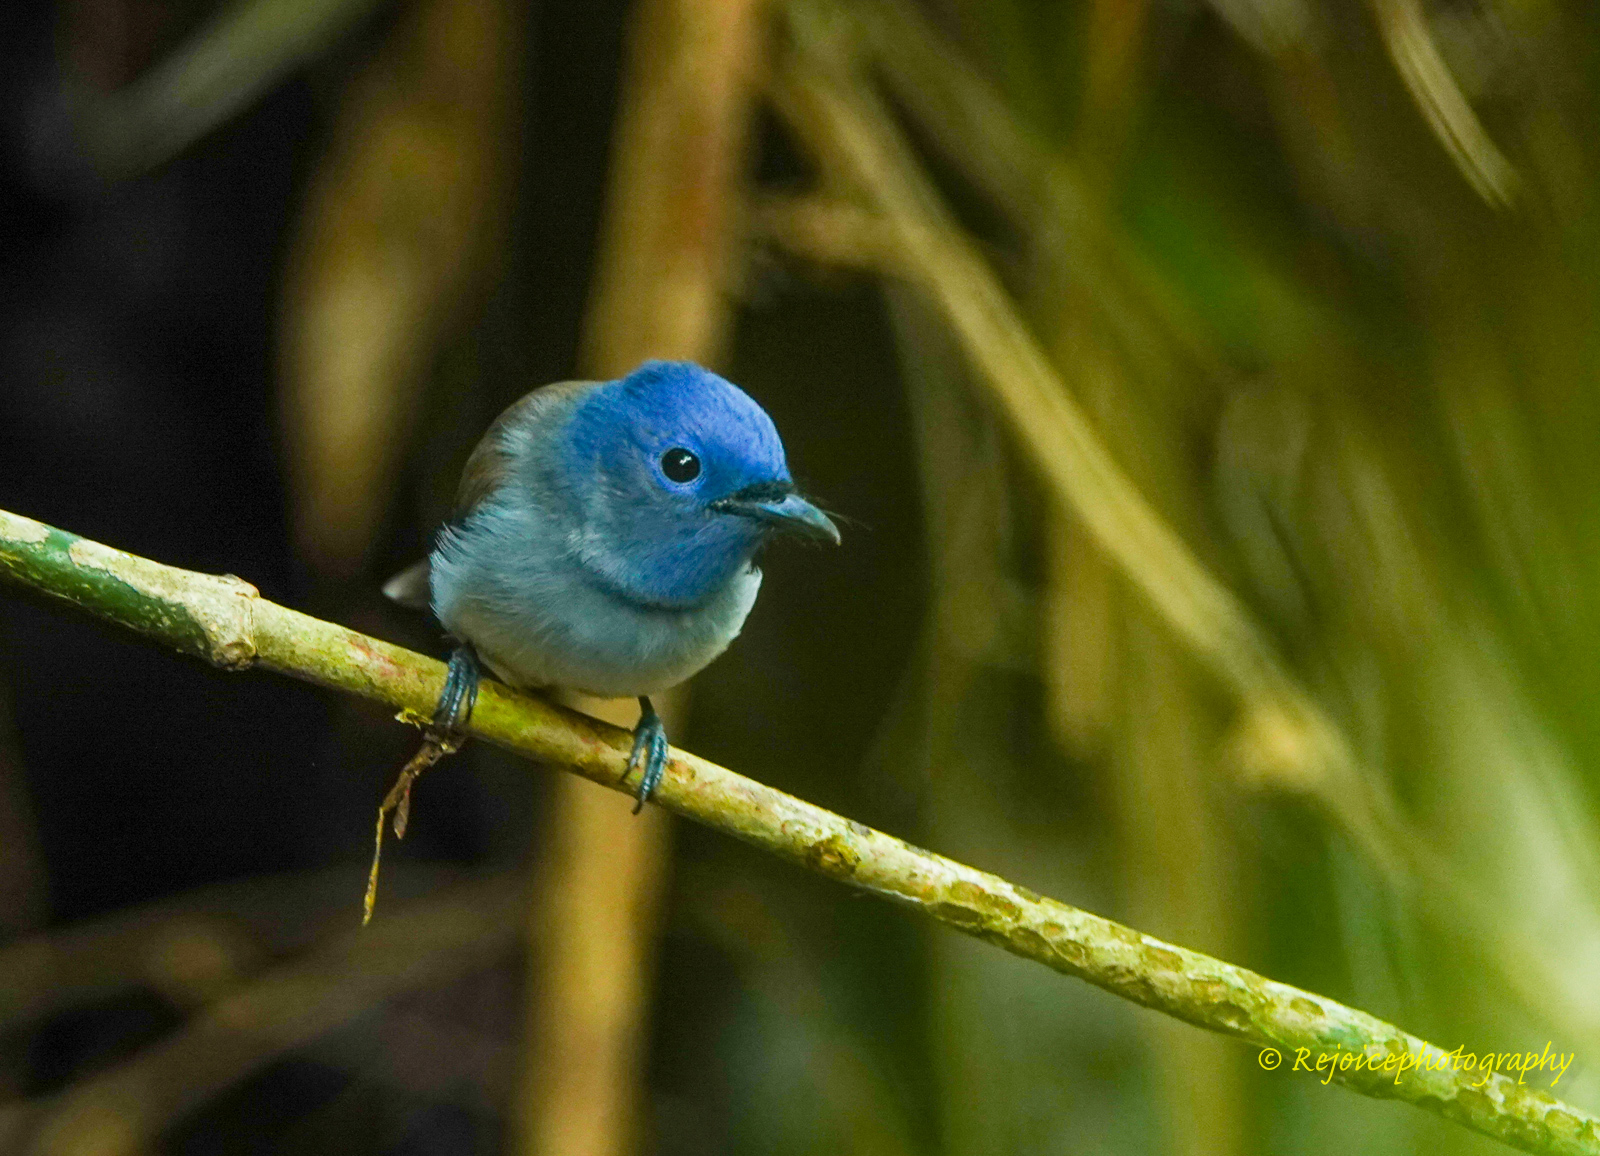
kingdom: Animalia
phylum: Chordata
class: Aves
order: Passeriformes
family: Monarchidae
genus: Hypothymis
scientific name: Hypothymis azurea
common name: Black-naped monarch
